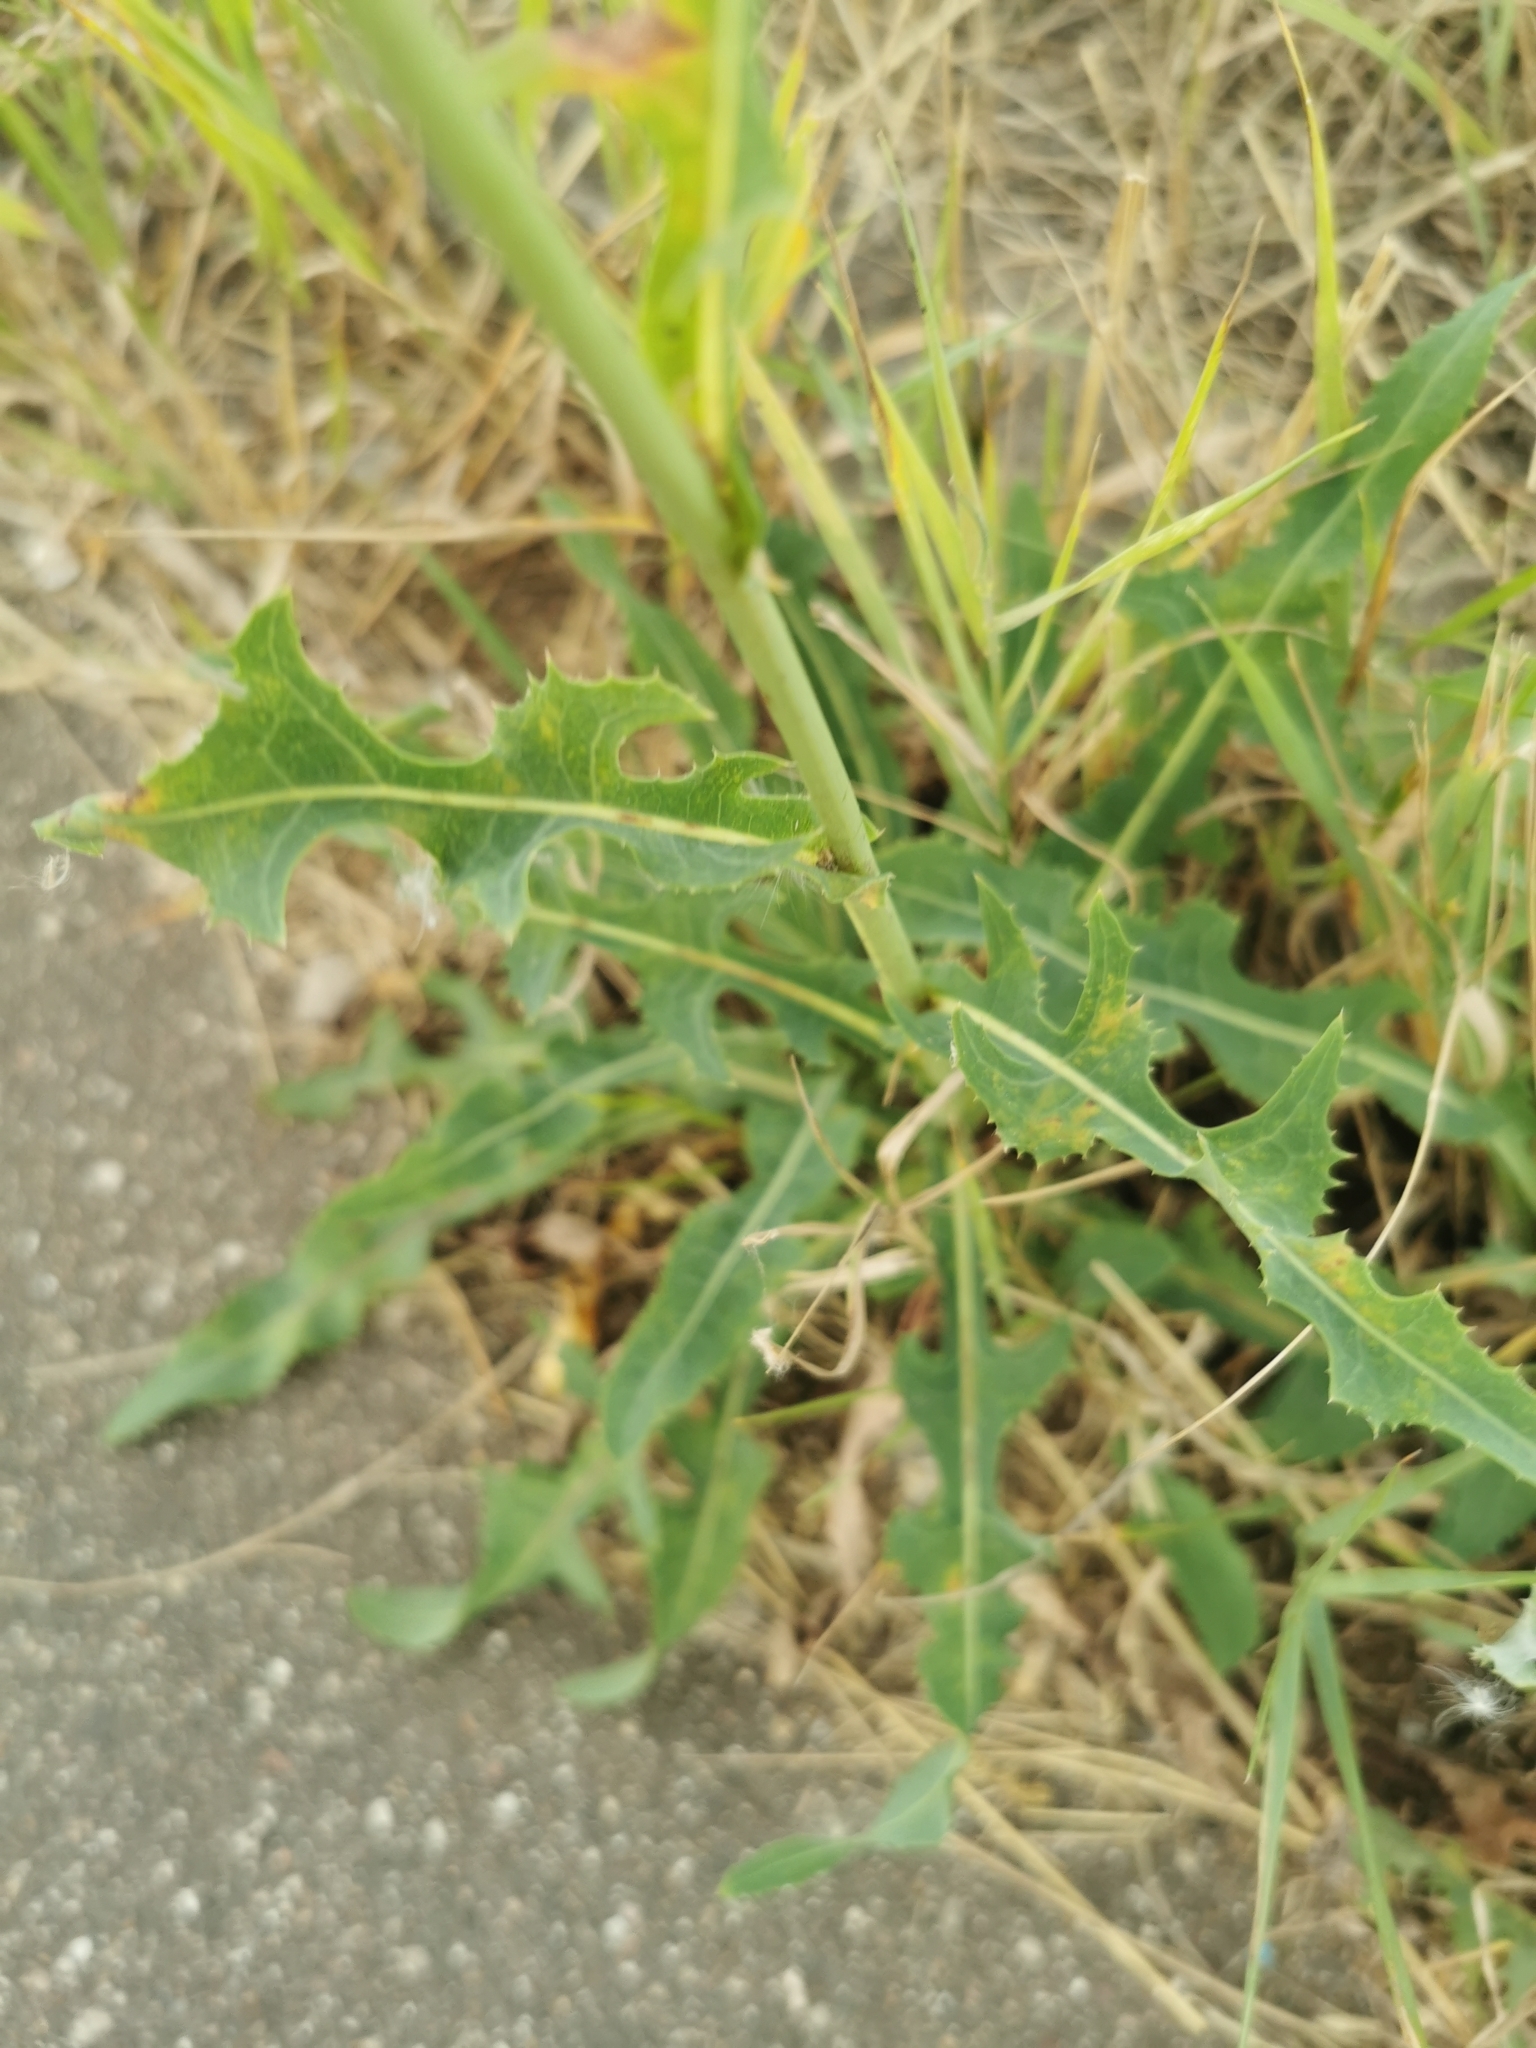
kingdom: Plantae
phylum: Tracheophyta
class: Magnoliopsida
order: Asterales
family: Asteraceae
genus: Sonchus
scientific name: Sonchus arvensis
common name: Perennial sow-thistle
